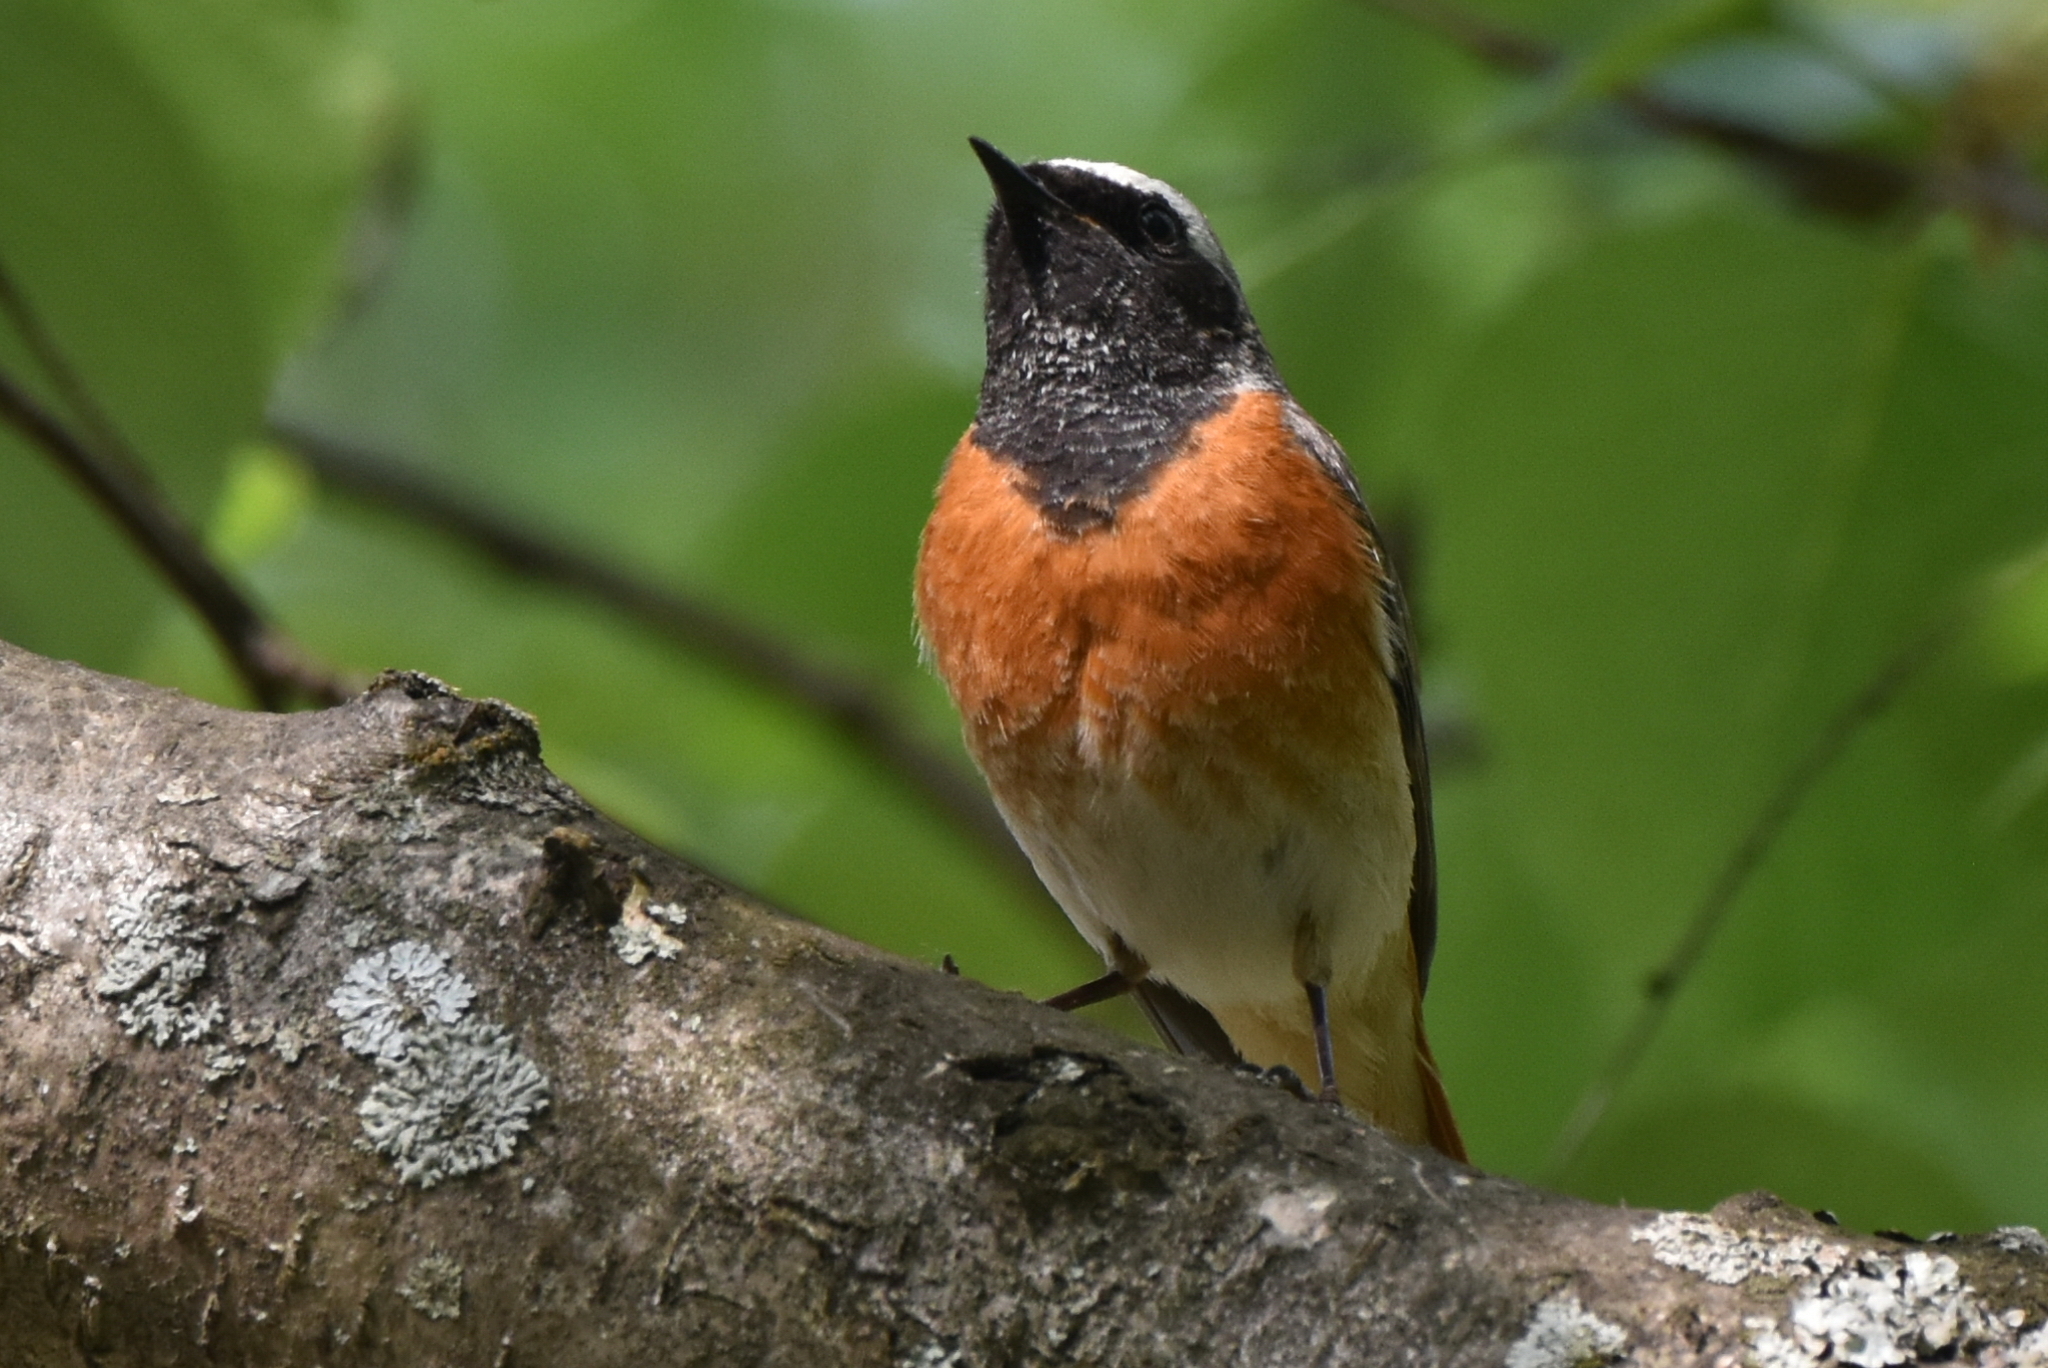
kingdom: Animalia
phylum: Chordata
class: Aves
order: Passeriformes
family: Muscicapidae
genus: Phoenicurus
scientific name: Phoenicurus phoenicurus
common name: Common redstart
